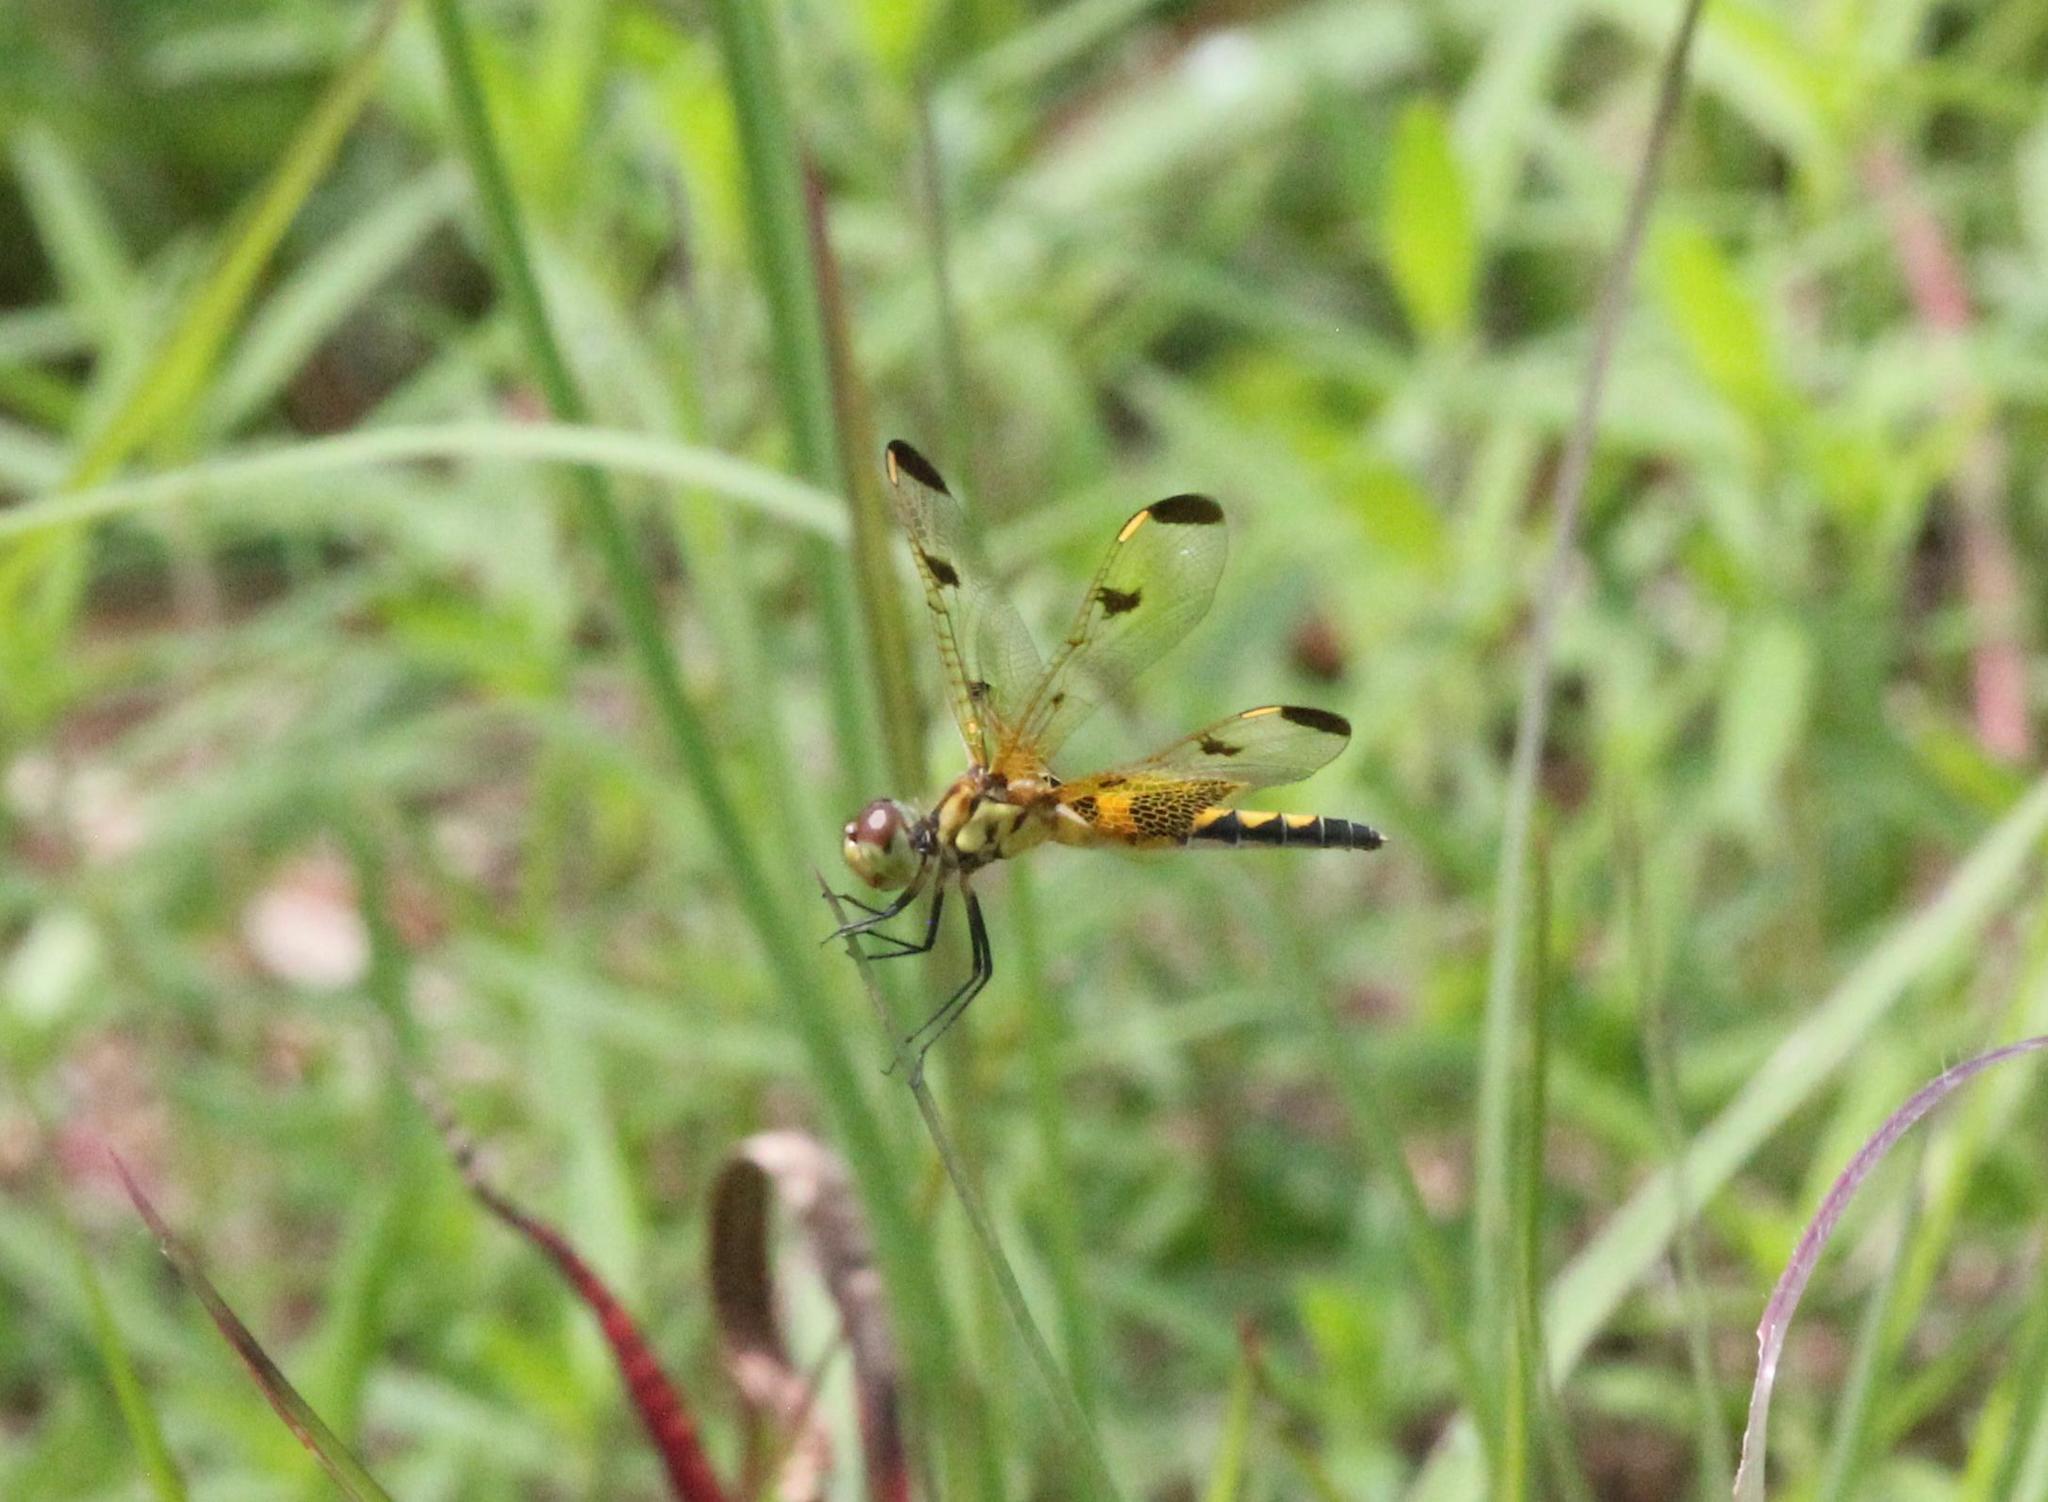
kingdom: Animalia
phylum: Arthropoda
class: Insecta
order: Odonata
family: Libellulidae
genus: Celithemis
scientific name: Celithemis elisa
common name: Calico pennant
